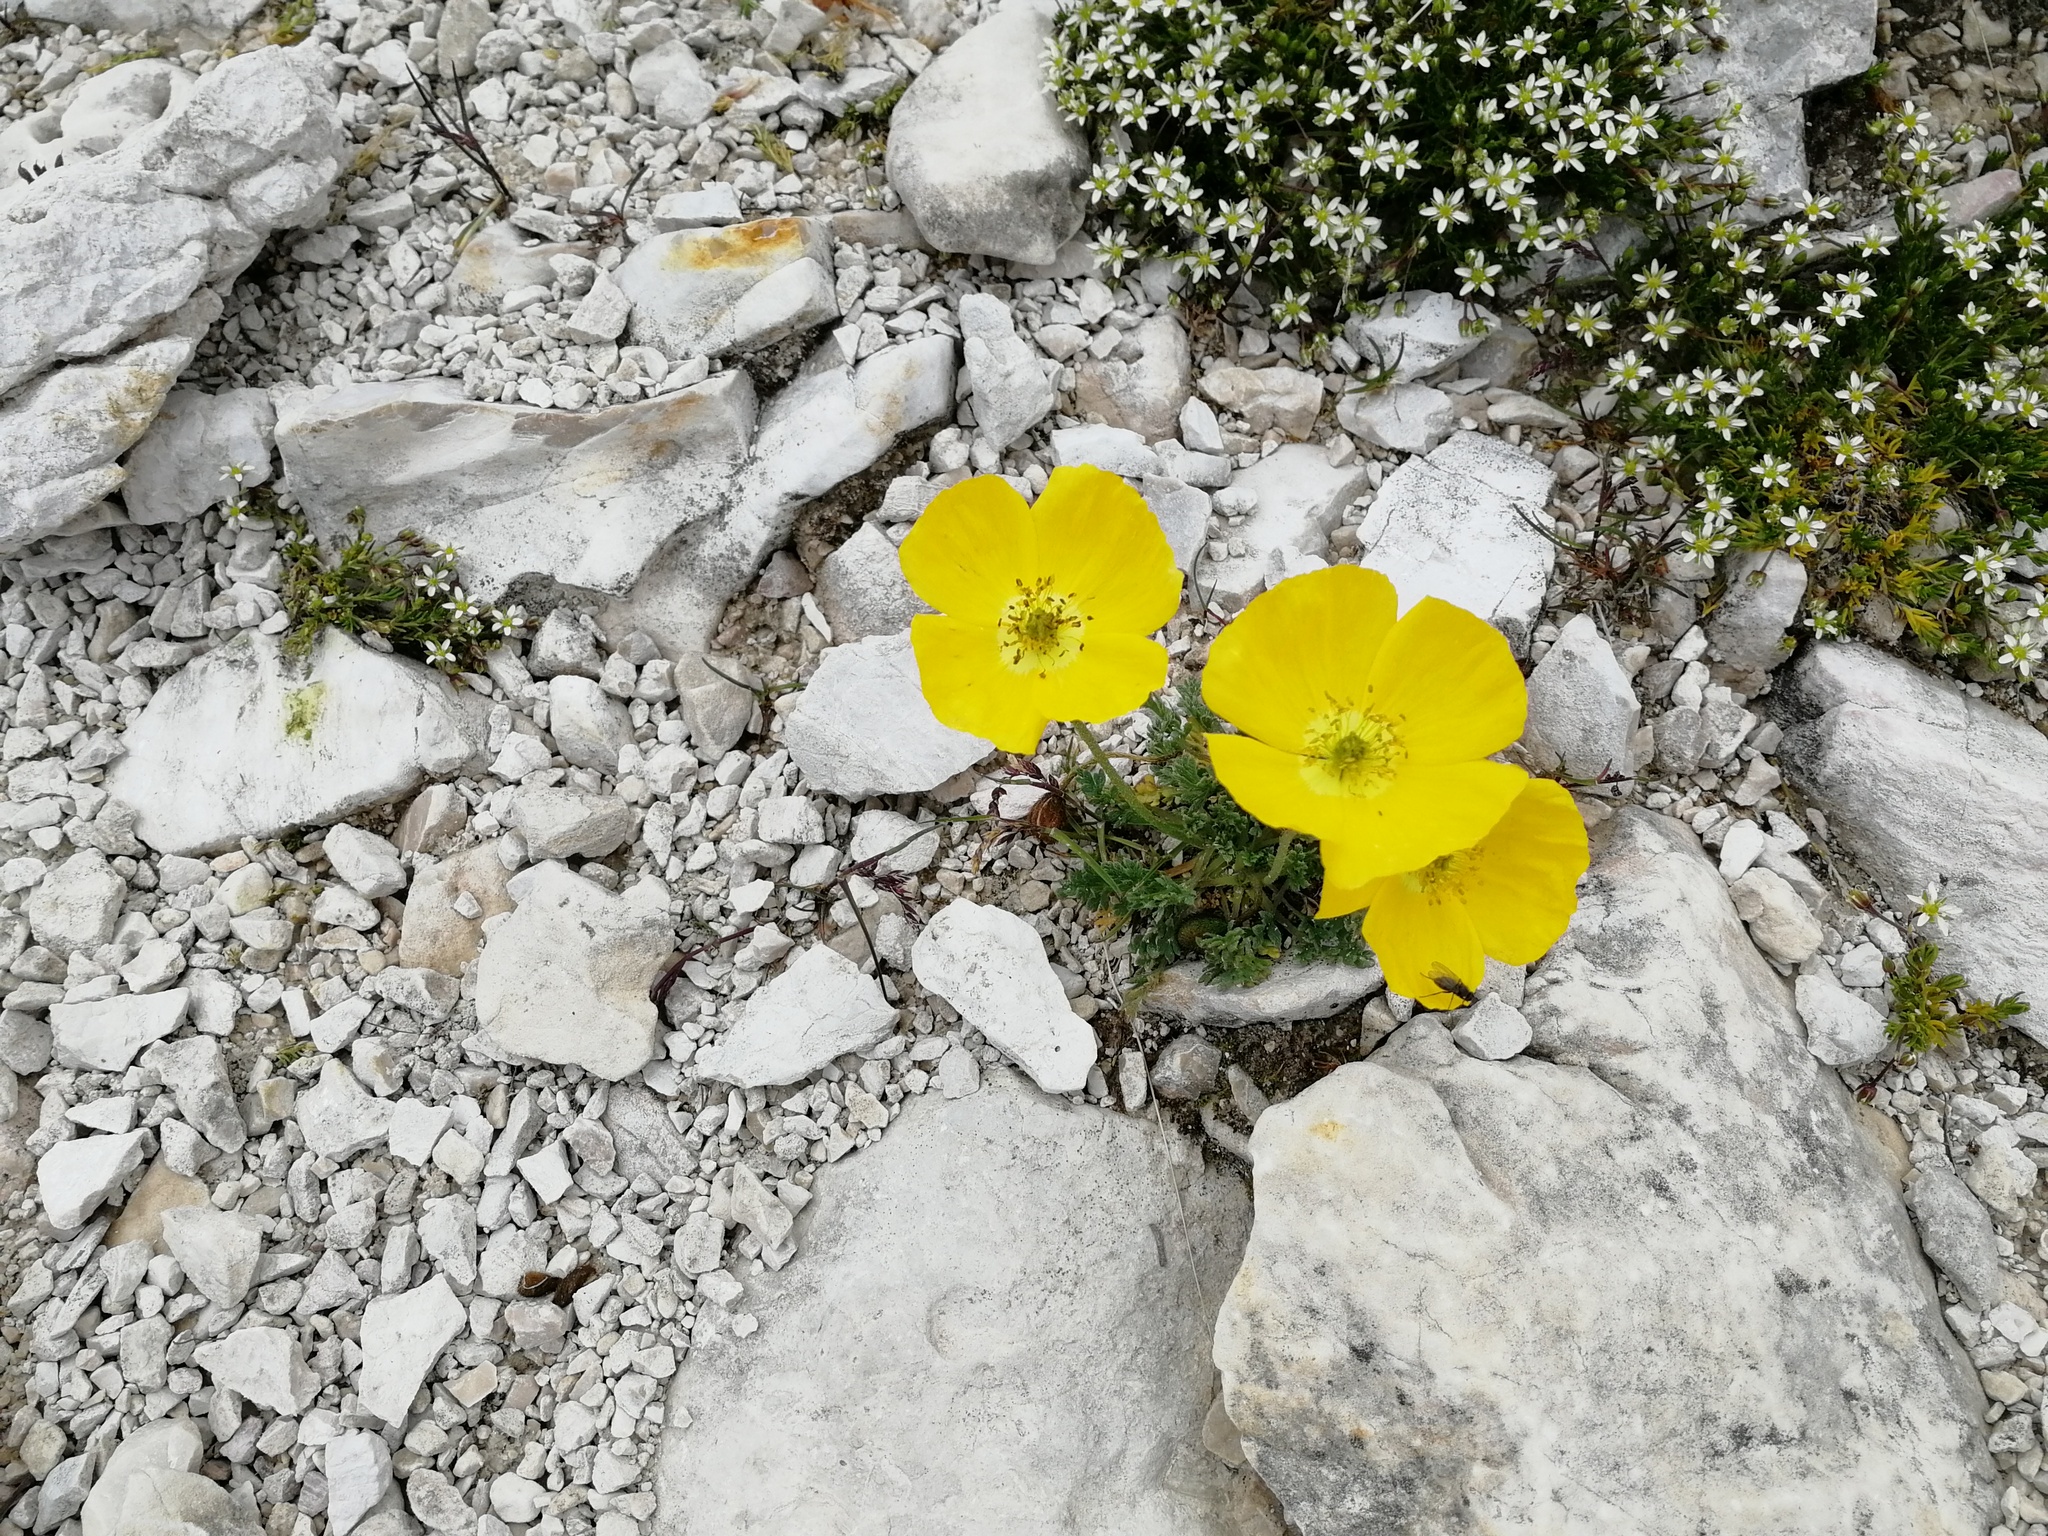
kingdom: Plantae
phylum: Tracheophyta
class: Magnoliopsida
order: Ranunculales
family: Papaveraceae
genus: Papaver
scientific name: Papaver alpinum
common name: Austrian poppy
